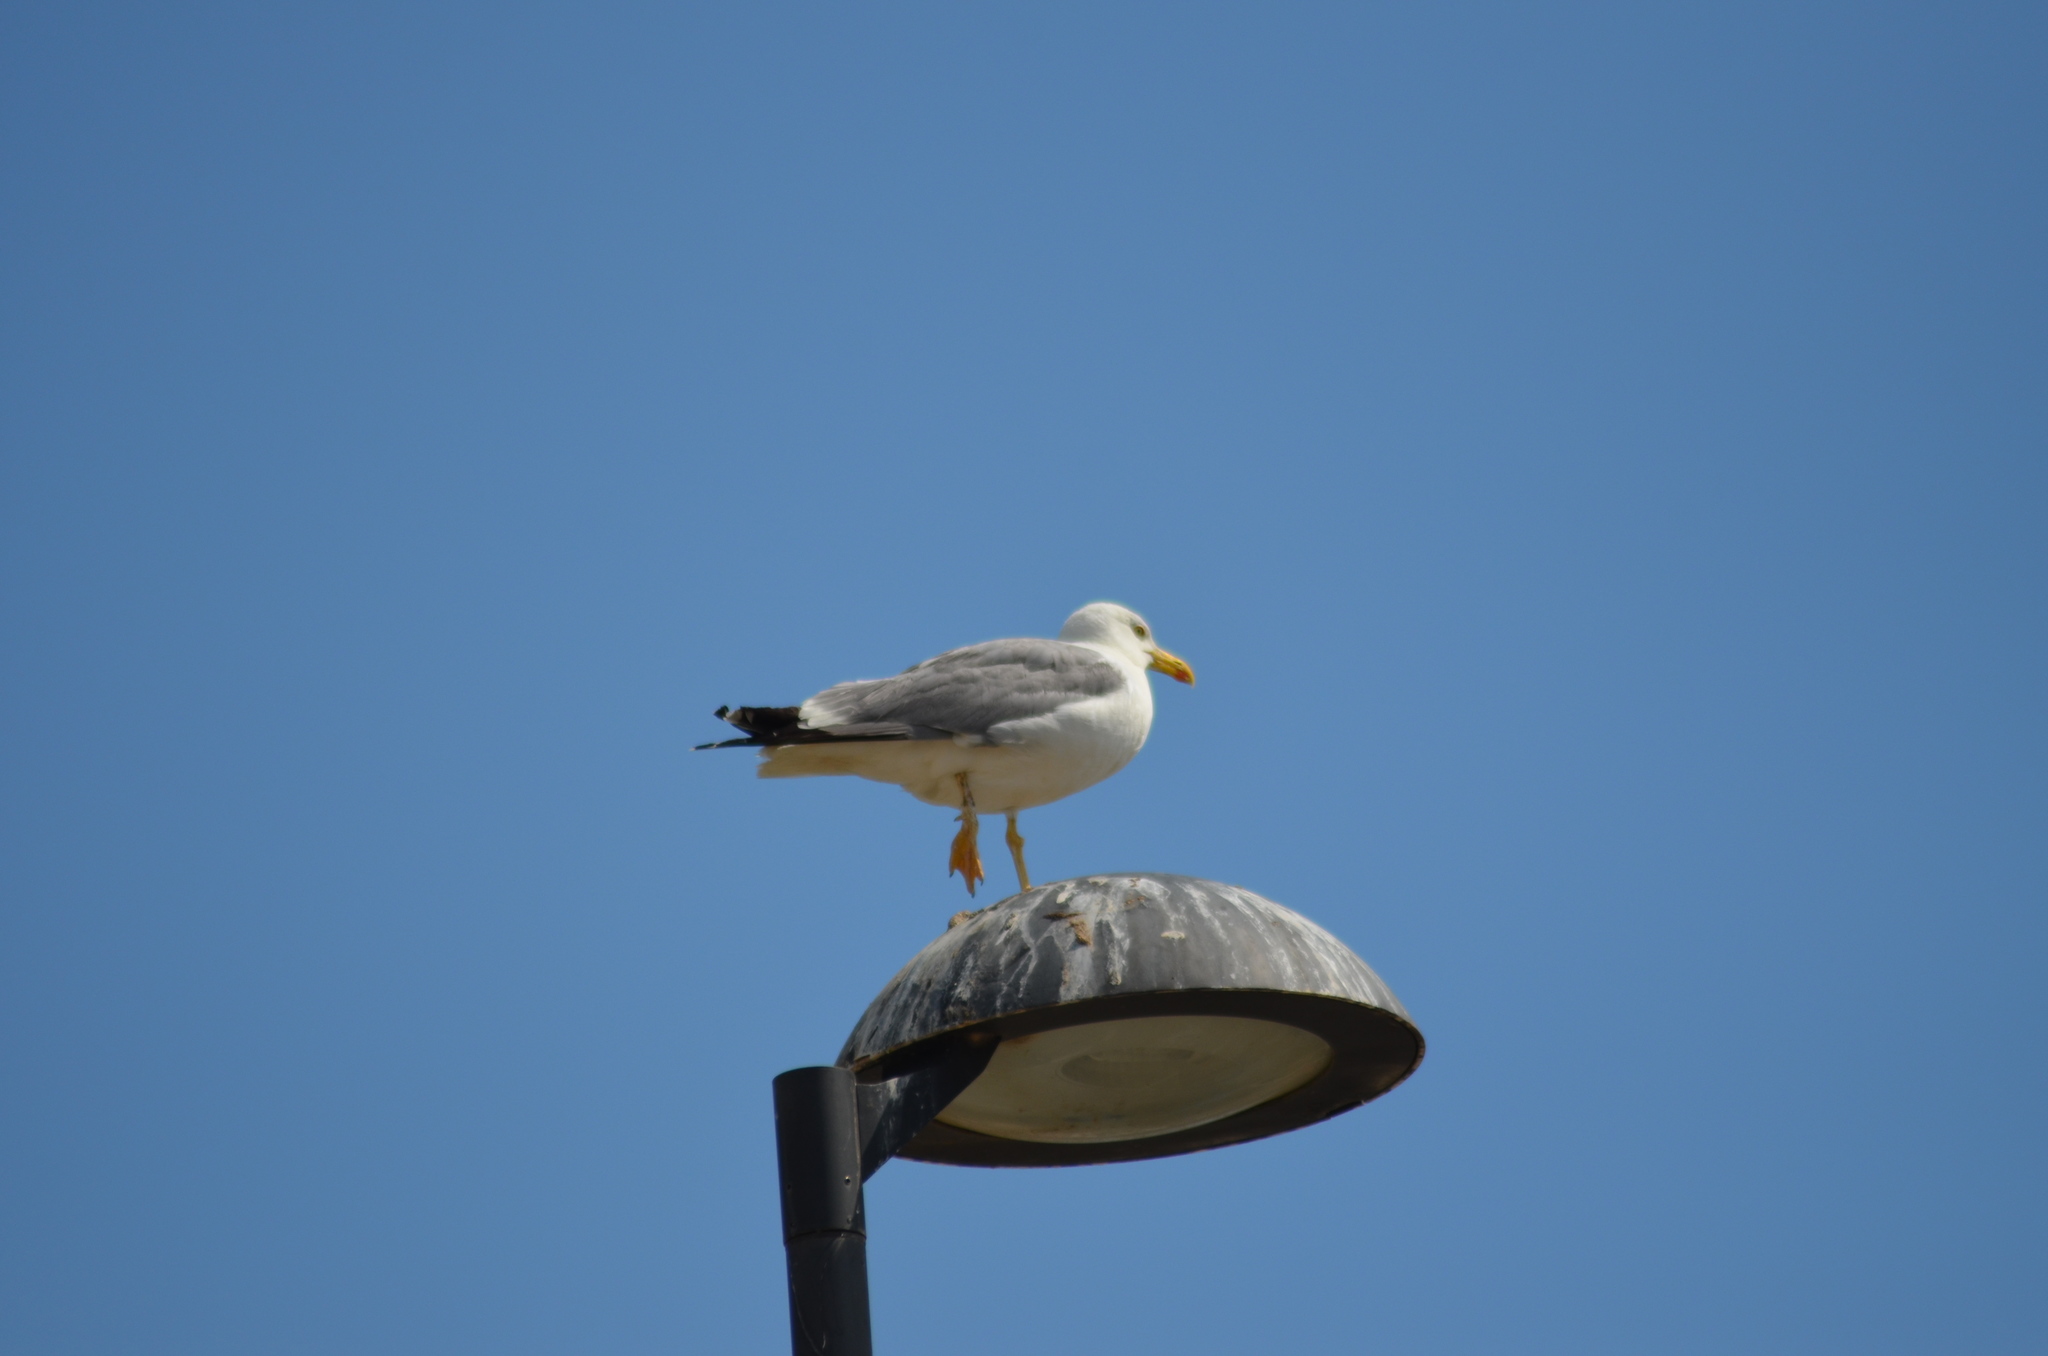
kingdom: Animalia
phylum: Chordata
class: Aves
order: Charadriiformes
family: Laridae
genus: Larus
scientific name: Larus michahellis
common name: Yellow-legged gull
